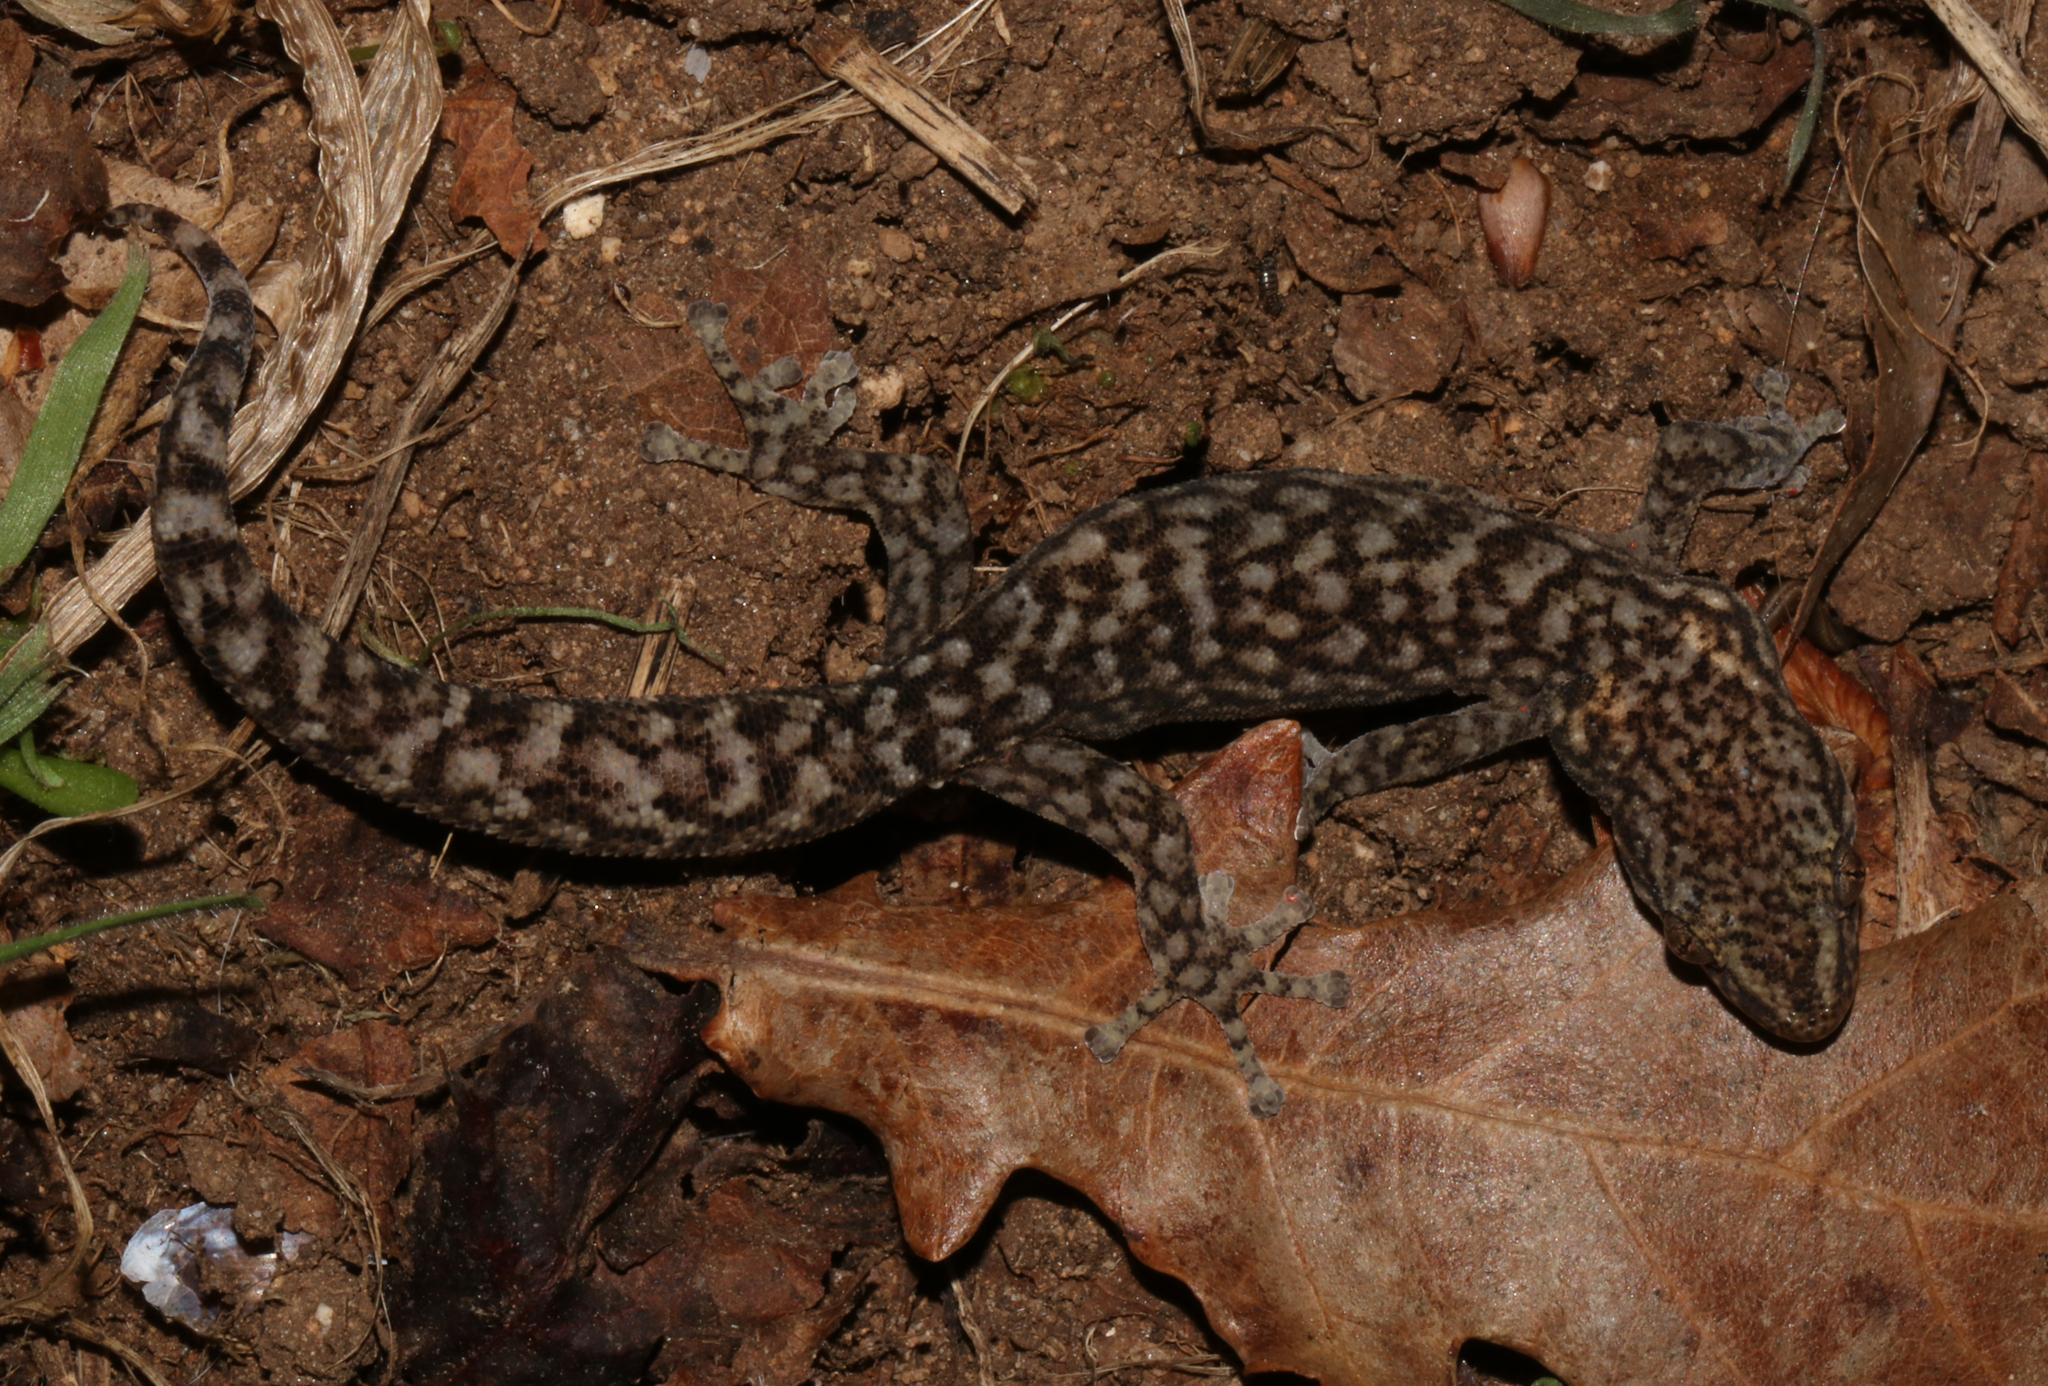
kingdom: Animalia
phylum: Chordata
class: Squamata
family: Gekkonidae
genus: Afrogecko
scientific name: Afrogecko porphyreus
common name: Marbled leaf-toed gecko
